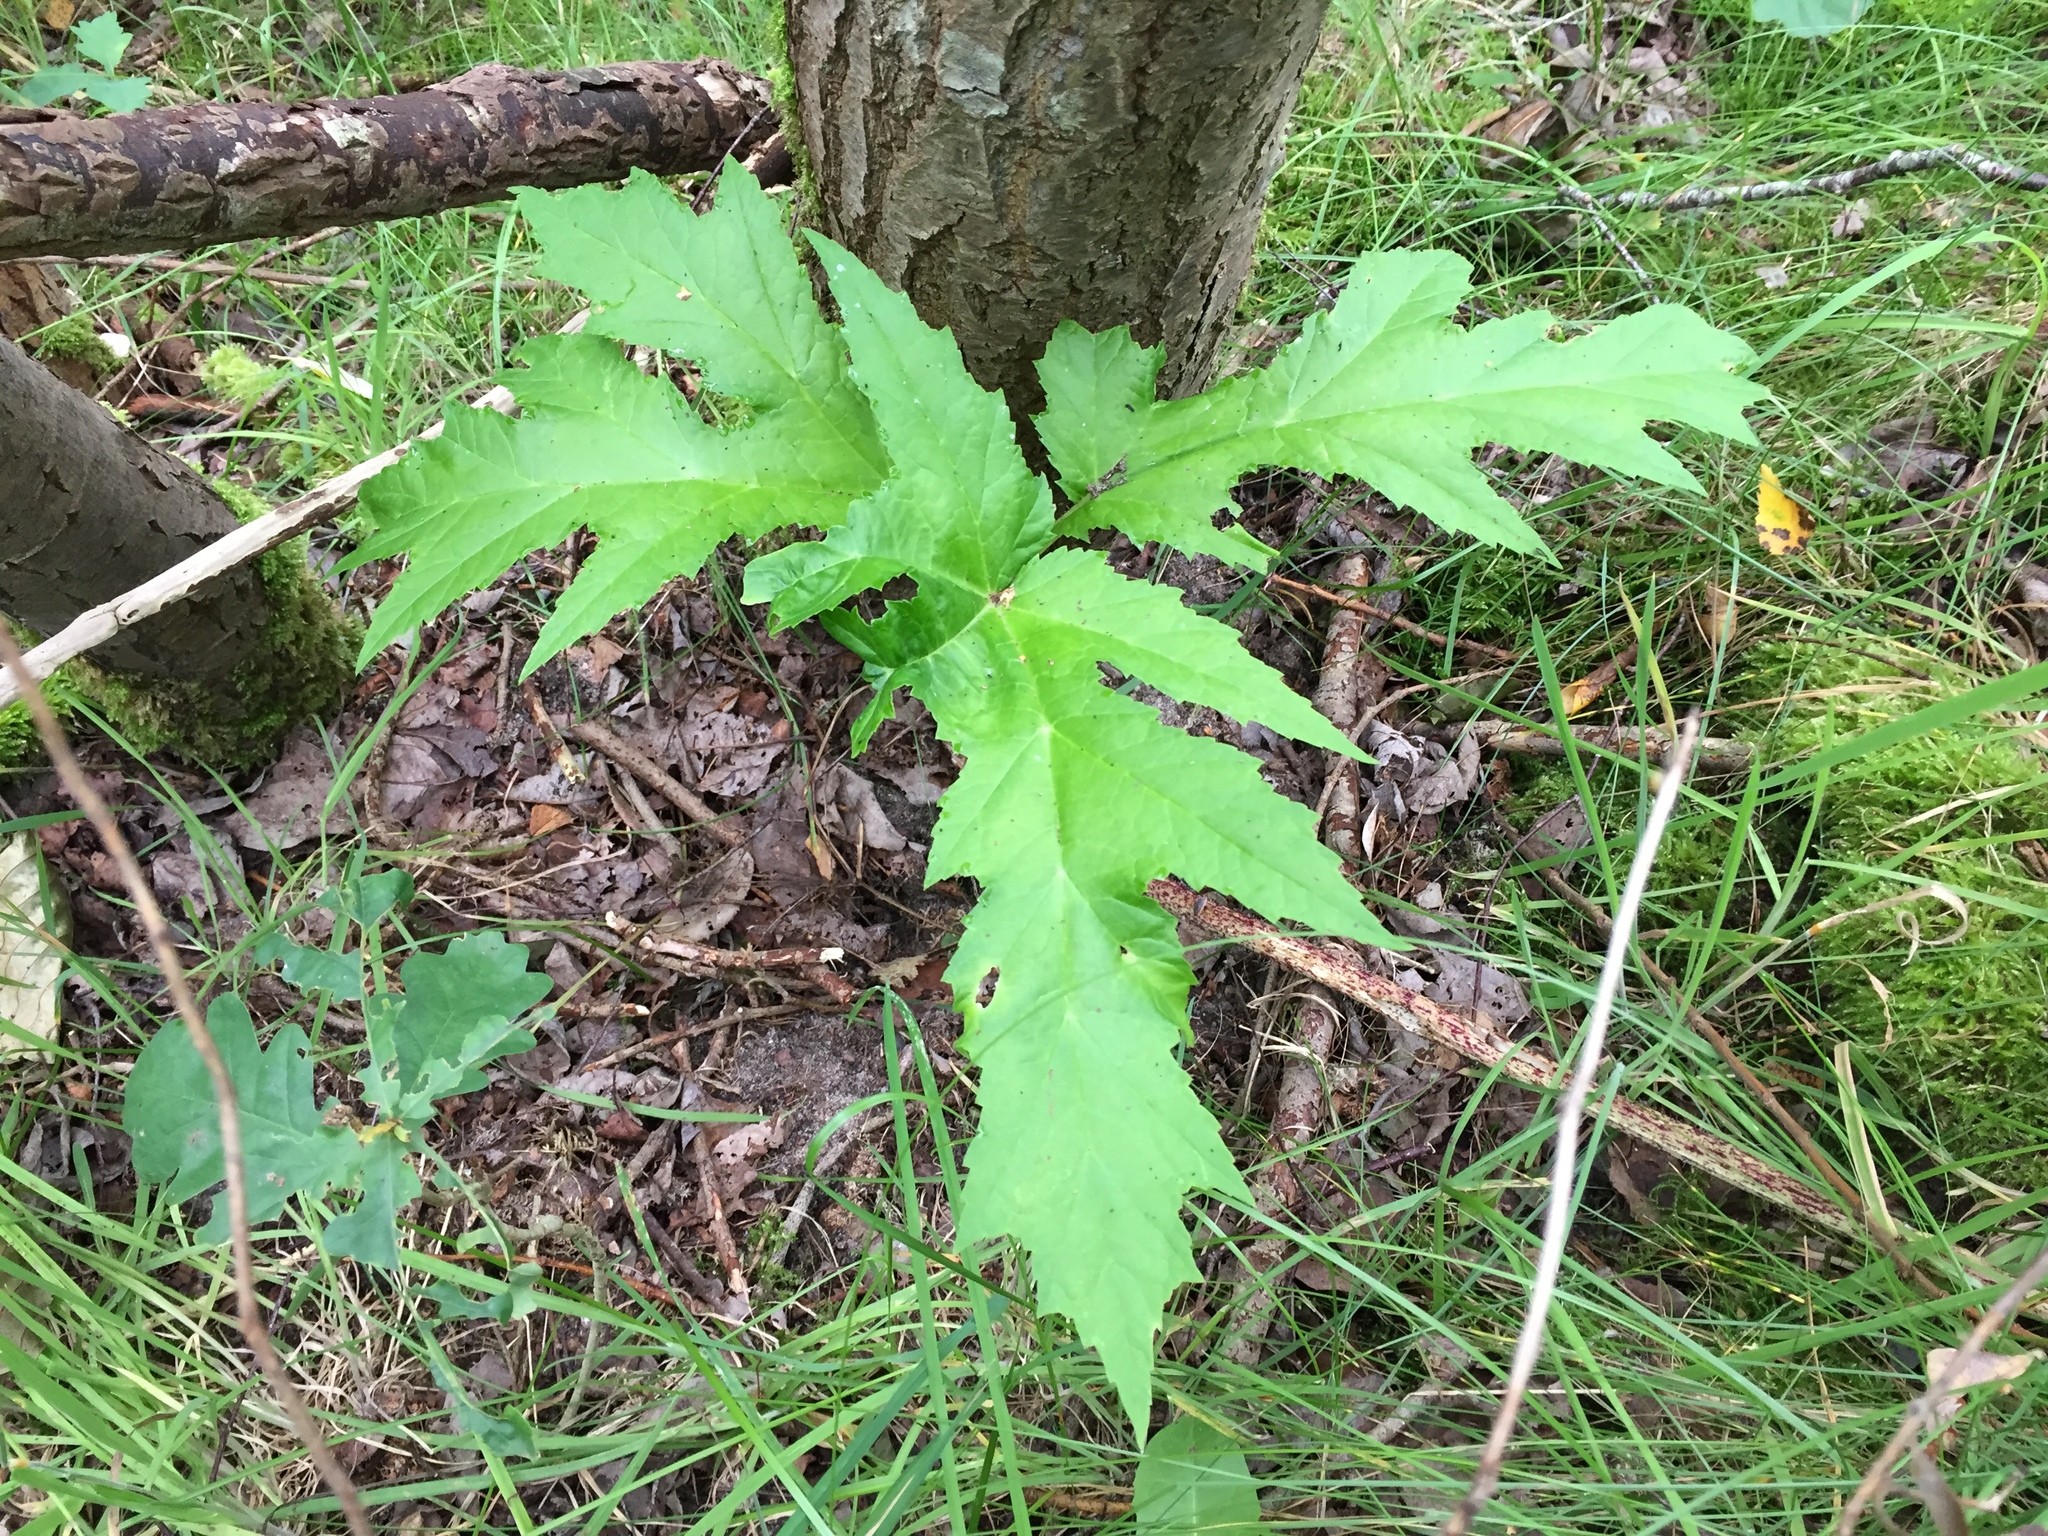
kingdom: Plantae
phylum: Tracheophyta
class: Magnoliopsida
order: Apiales
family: Apiaceae
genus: Heracleum
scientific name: Heracleum mantegazzianum
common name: Giant hogweed
